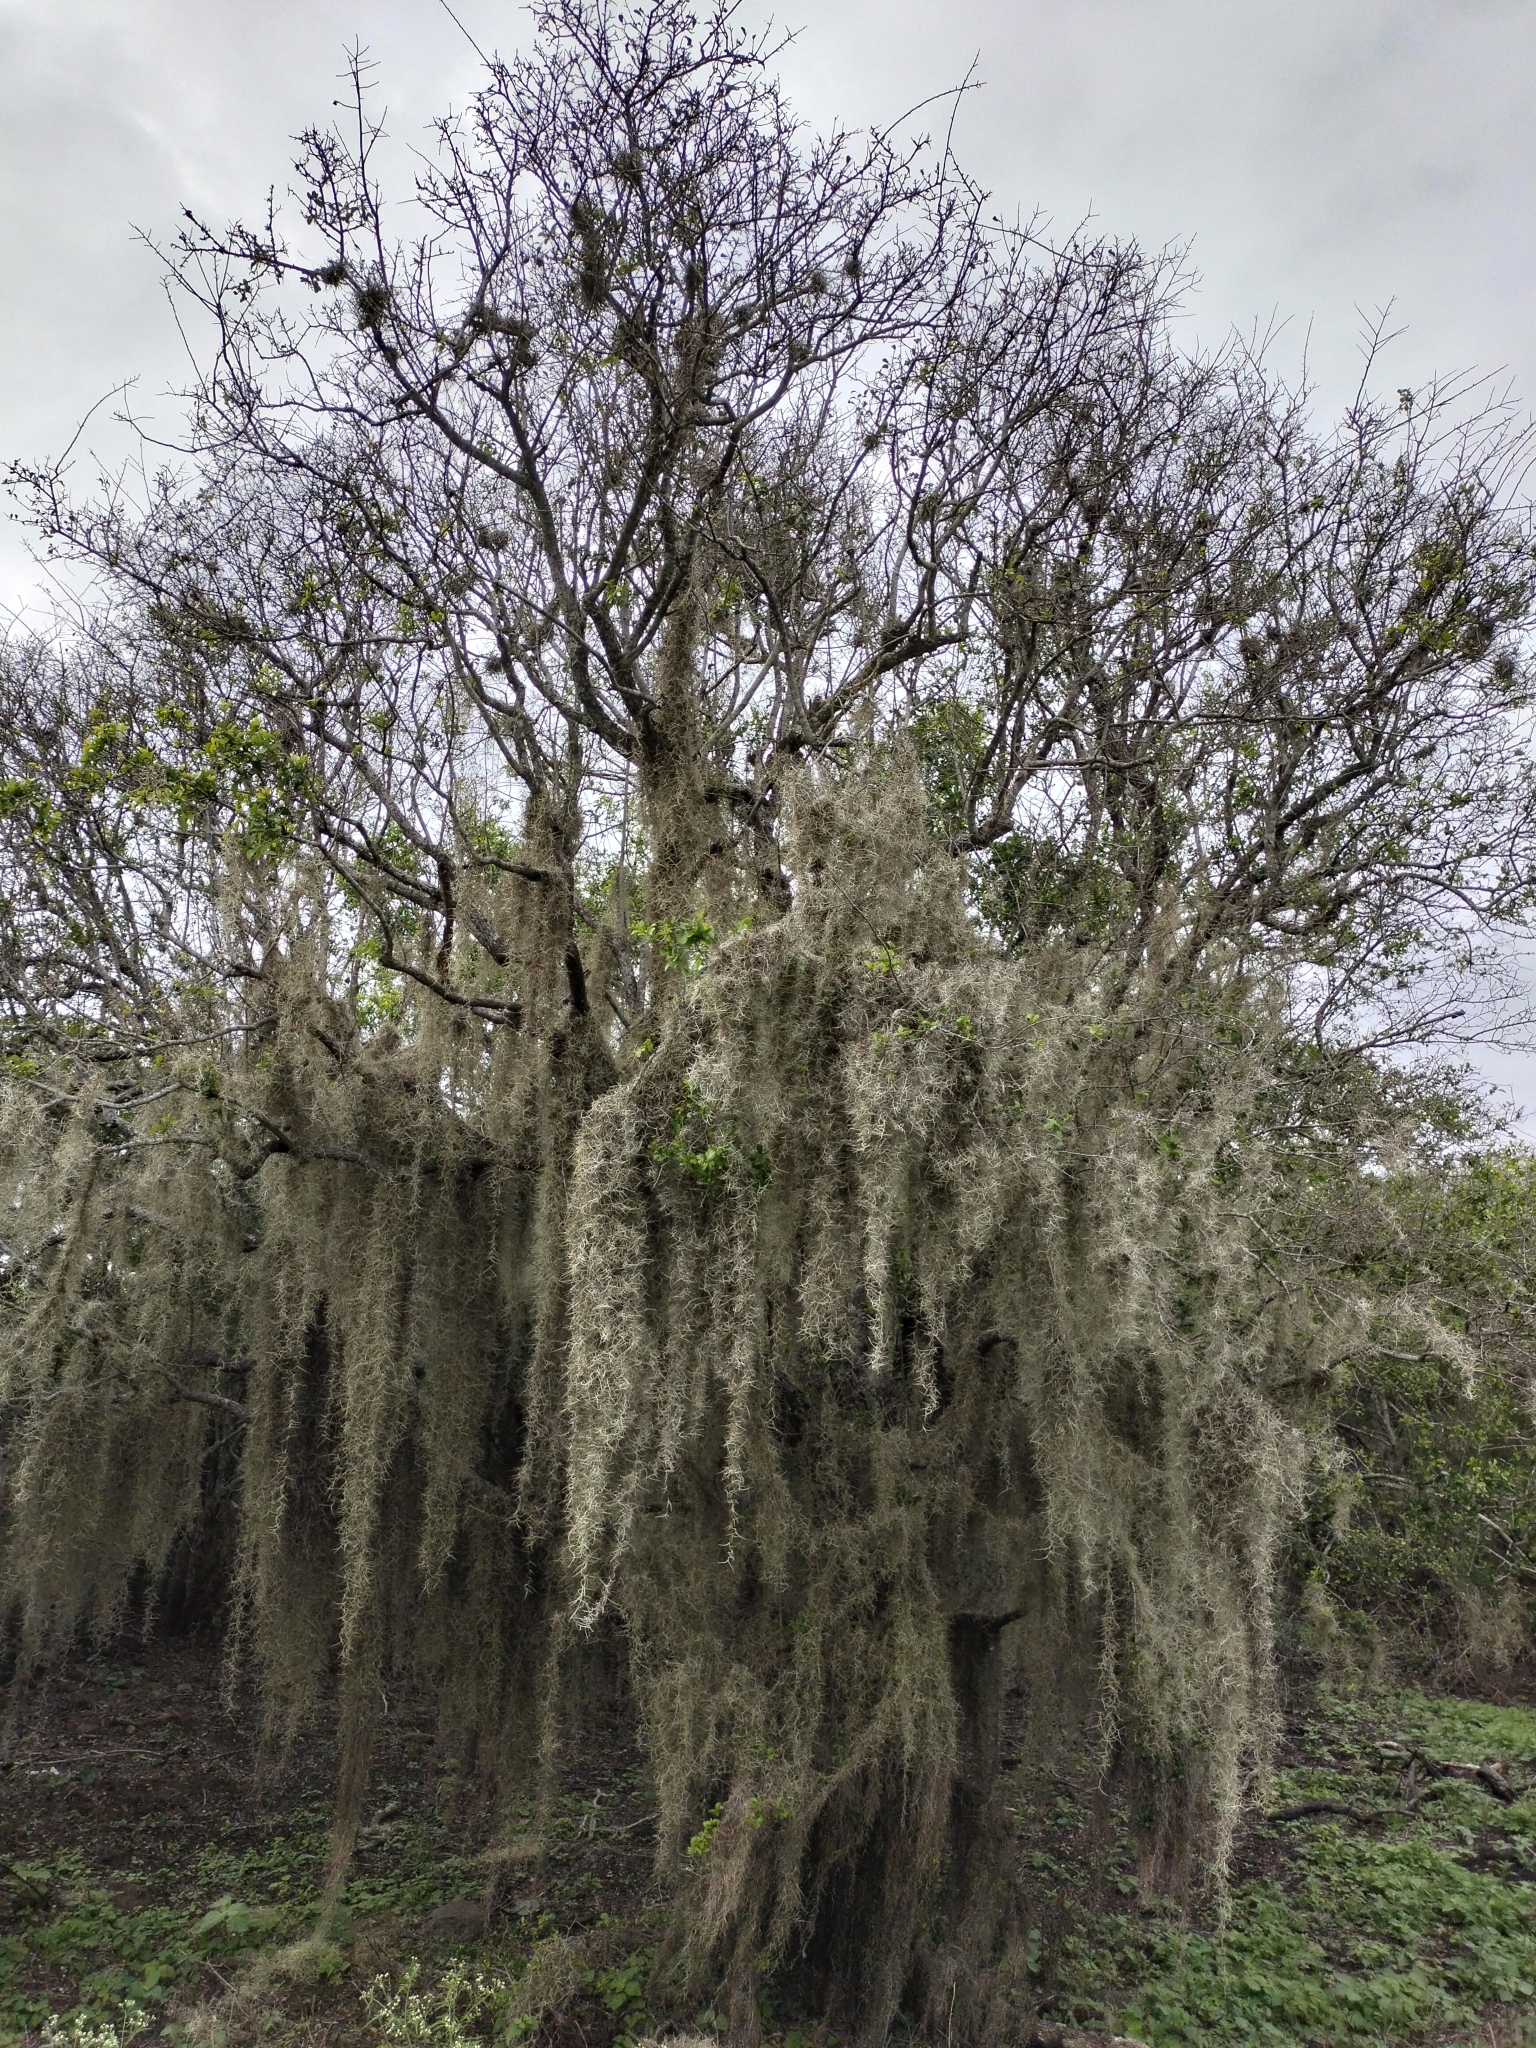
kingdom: Plantae
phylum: Tracheophyta
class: Liliopsida
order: Poales
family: Bromeliaceae
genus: Tillandsia
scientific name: Tillandsia usneoides
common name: Spanish moss
